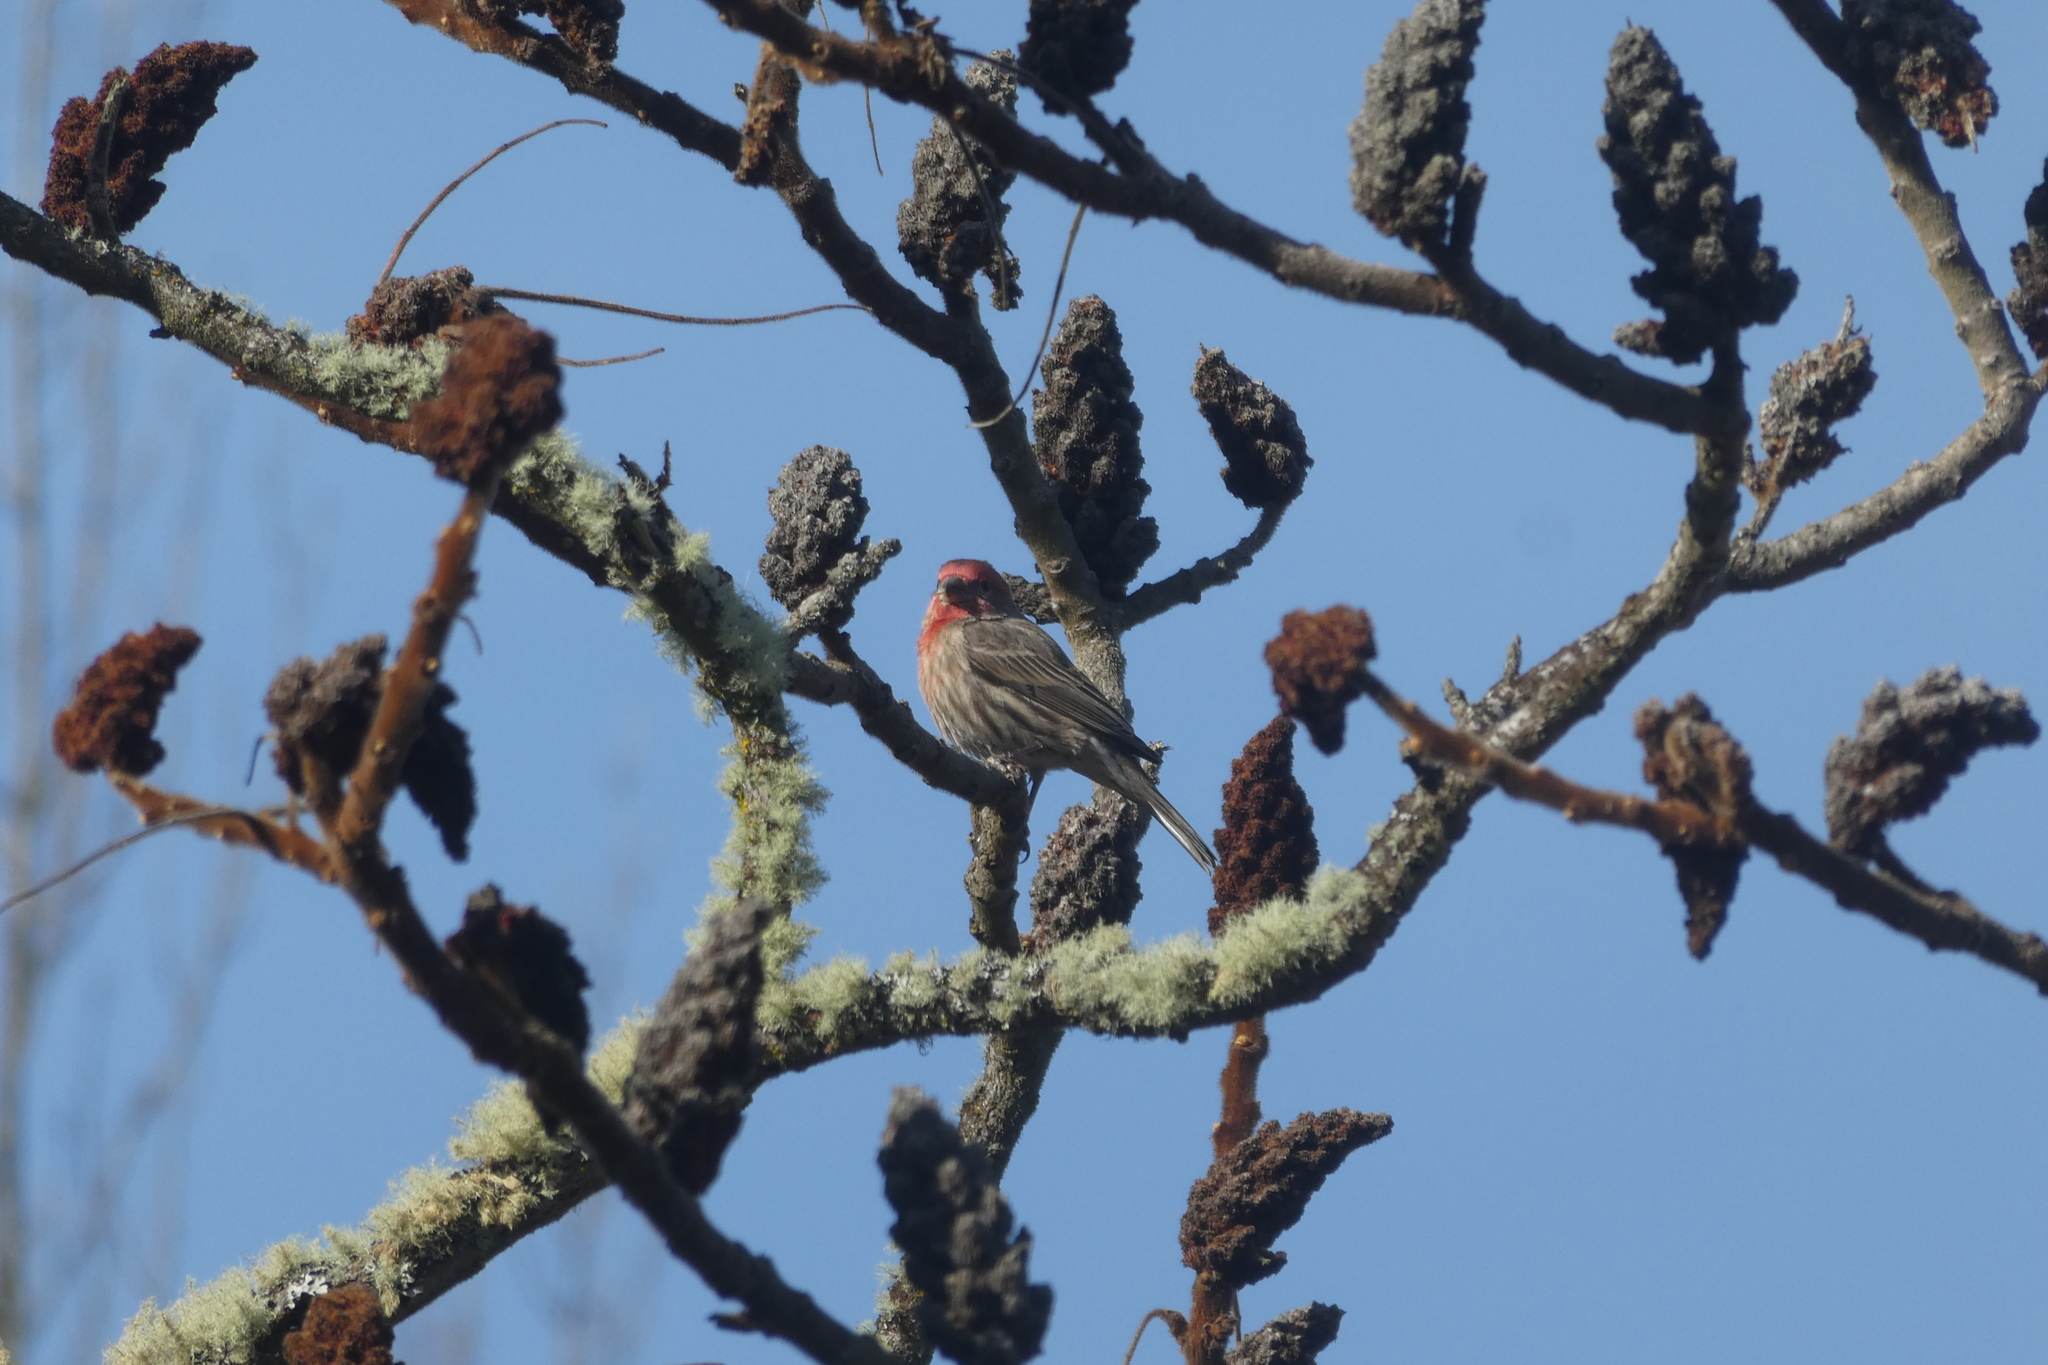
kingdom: Animalia
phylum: Chordata
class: Aves
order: Passeriformes
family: Fringillidae
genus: Haemorhous
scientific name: Haemorhous mexicanus
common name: House finch
